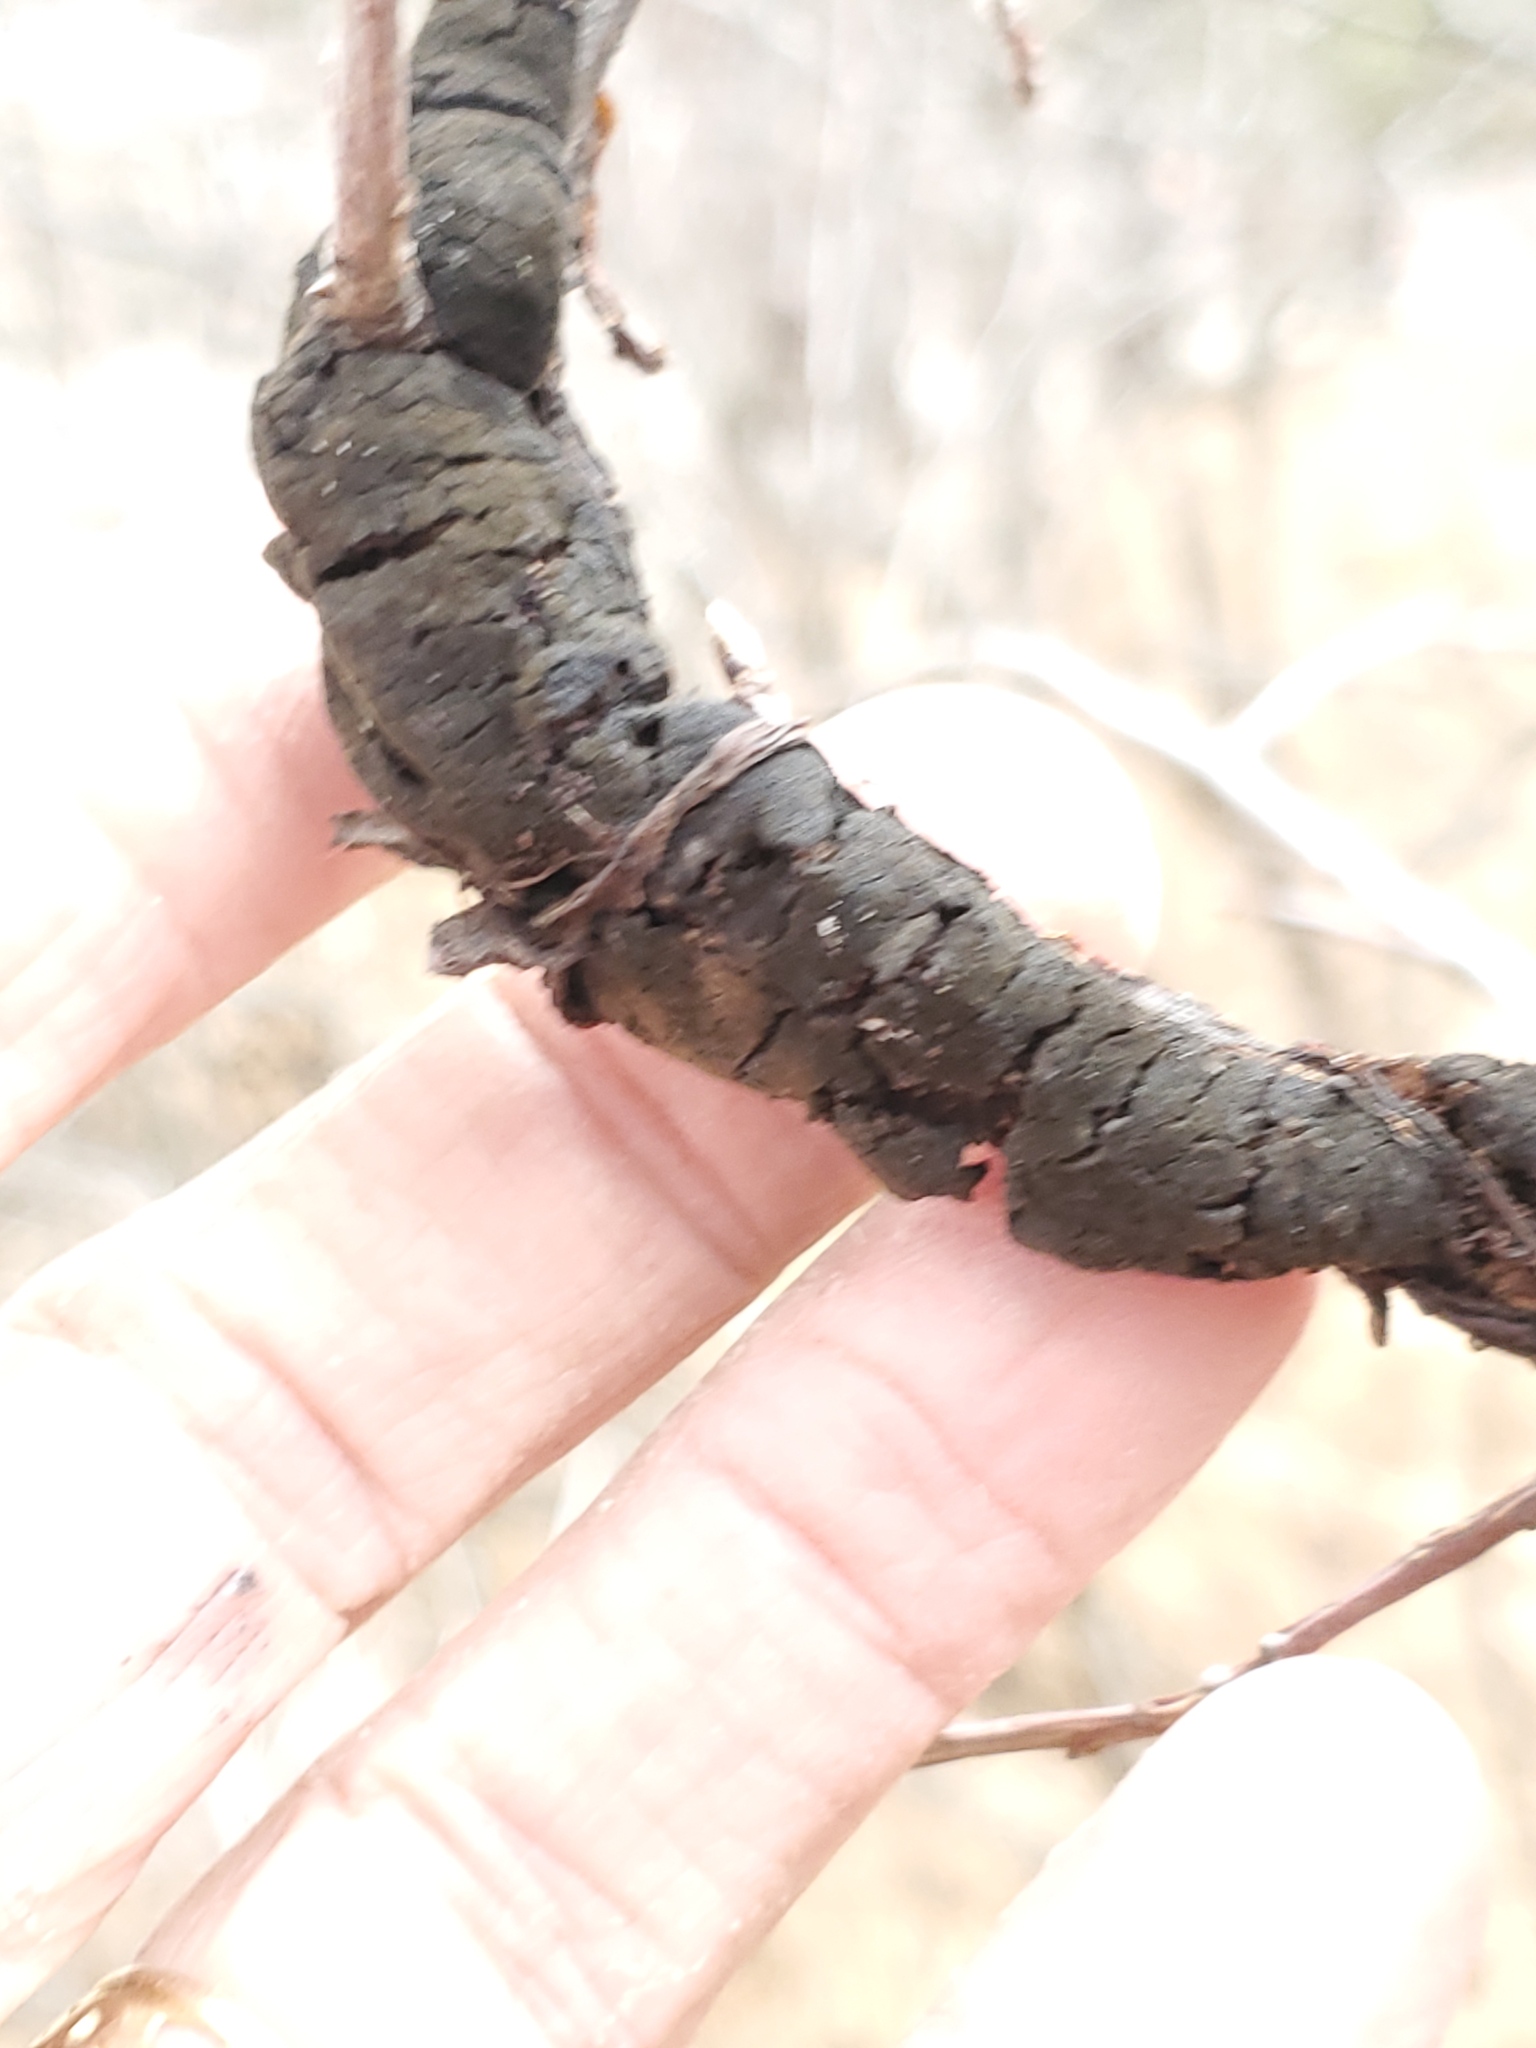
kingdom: Fungi
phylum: Ascomycota
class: Dothideomycetes
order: Venturiales
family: Venturiaceae
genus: Apiosporina
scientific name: Apiosporina morbosa
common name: Black knot
